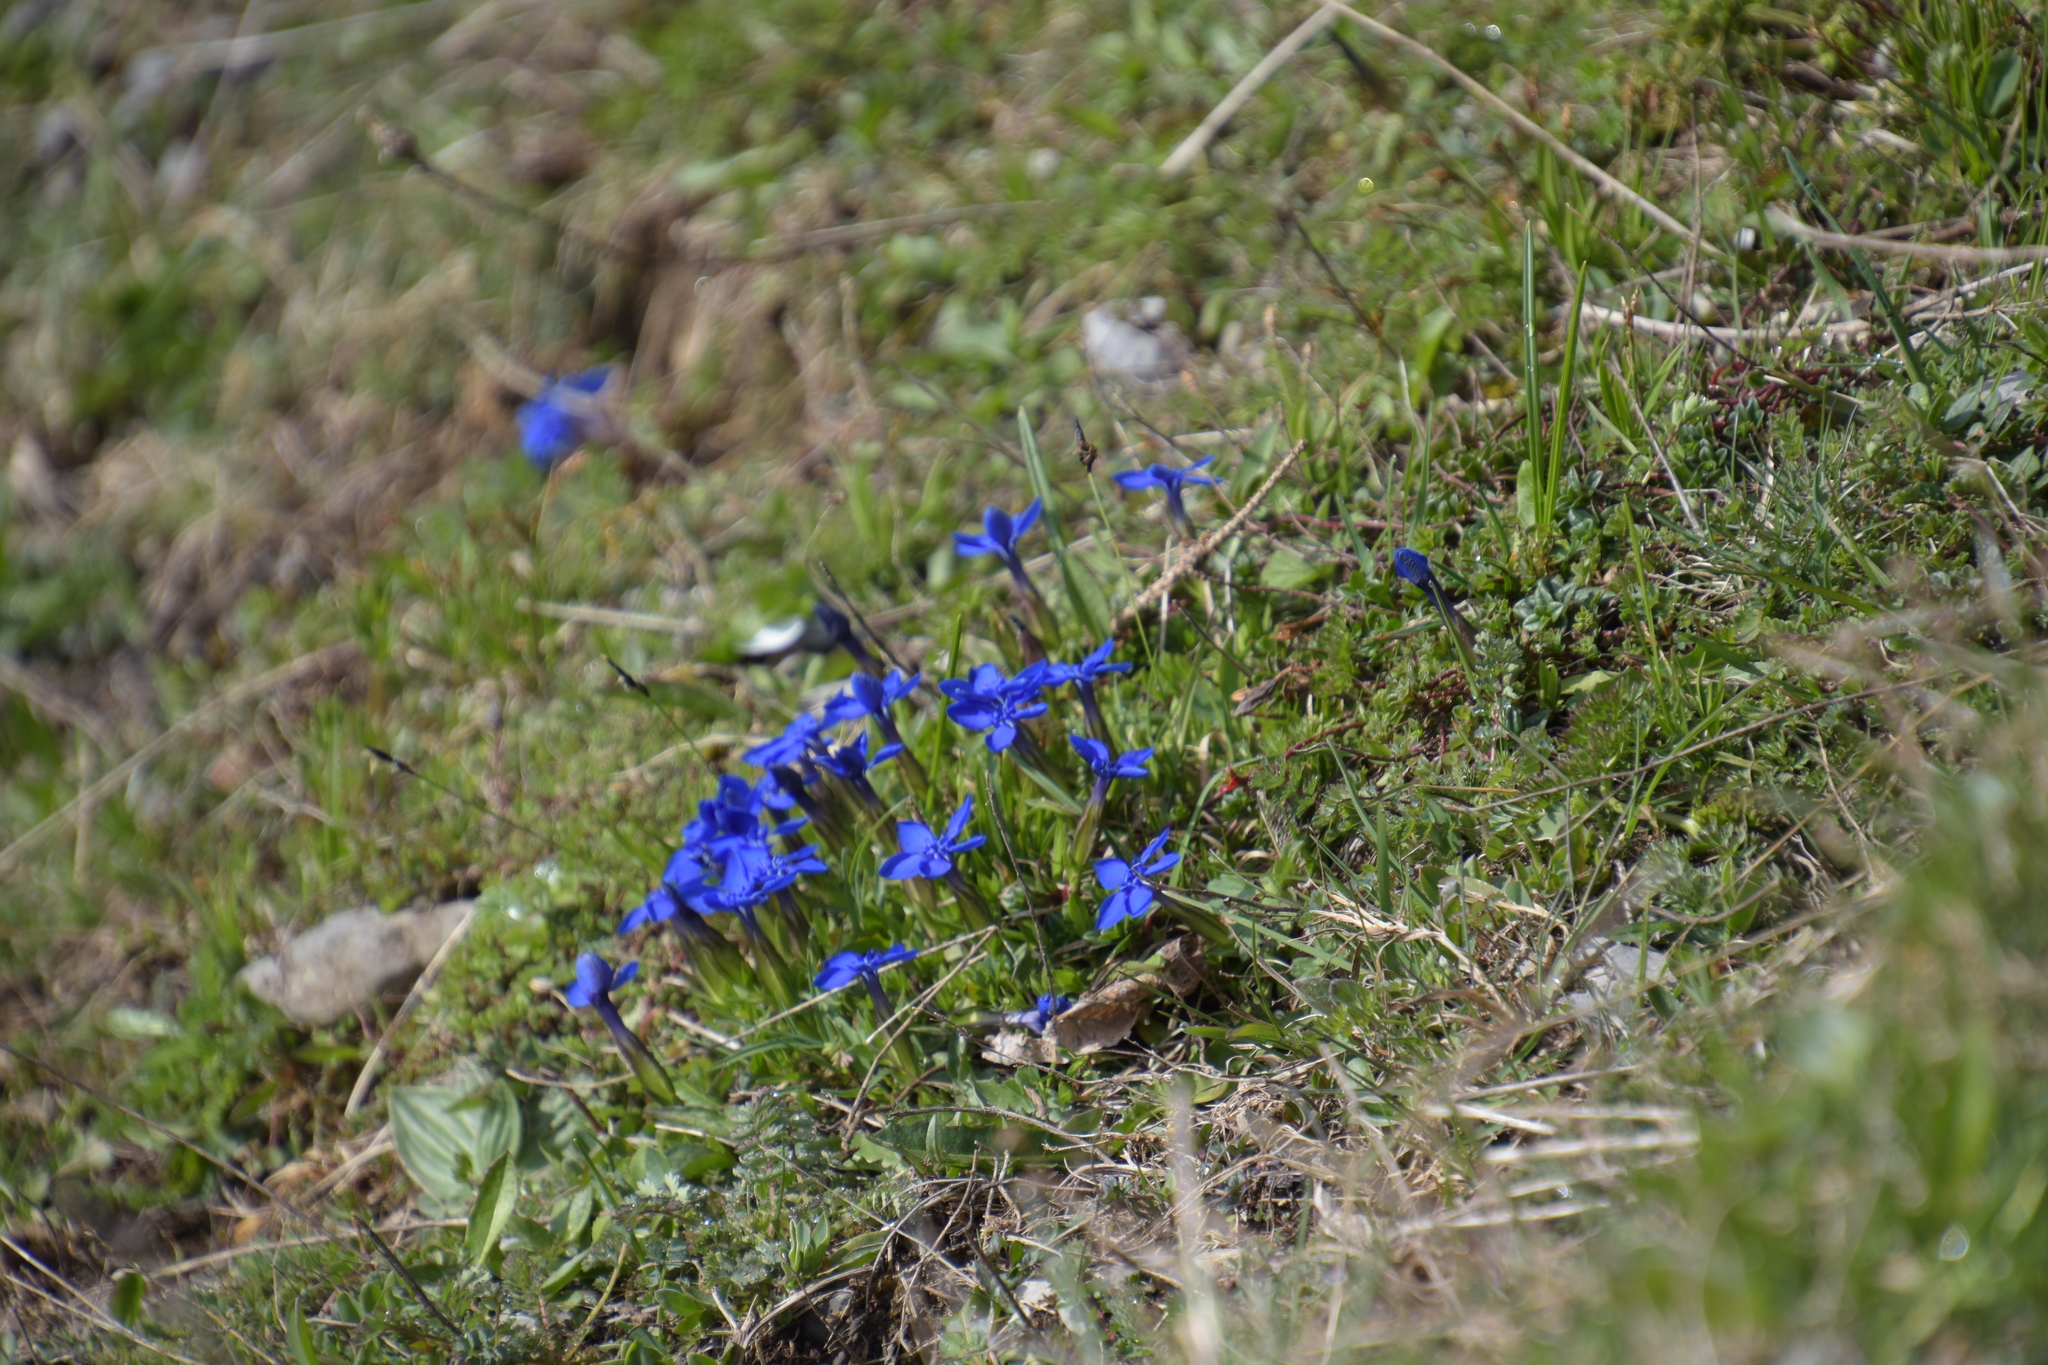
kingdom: Plantae
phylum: Tracheophyta
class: Magnoliopsida
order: Gentianales
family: Gentianaceae
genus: Gentiana
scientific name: Gentiana verna
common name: Spring gentian
